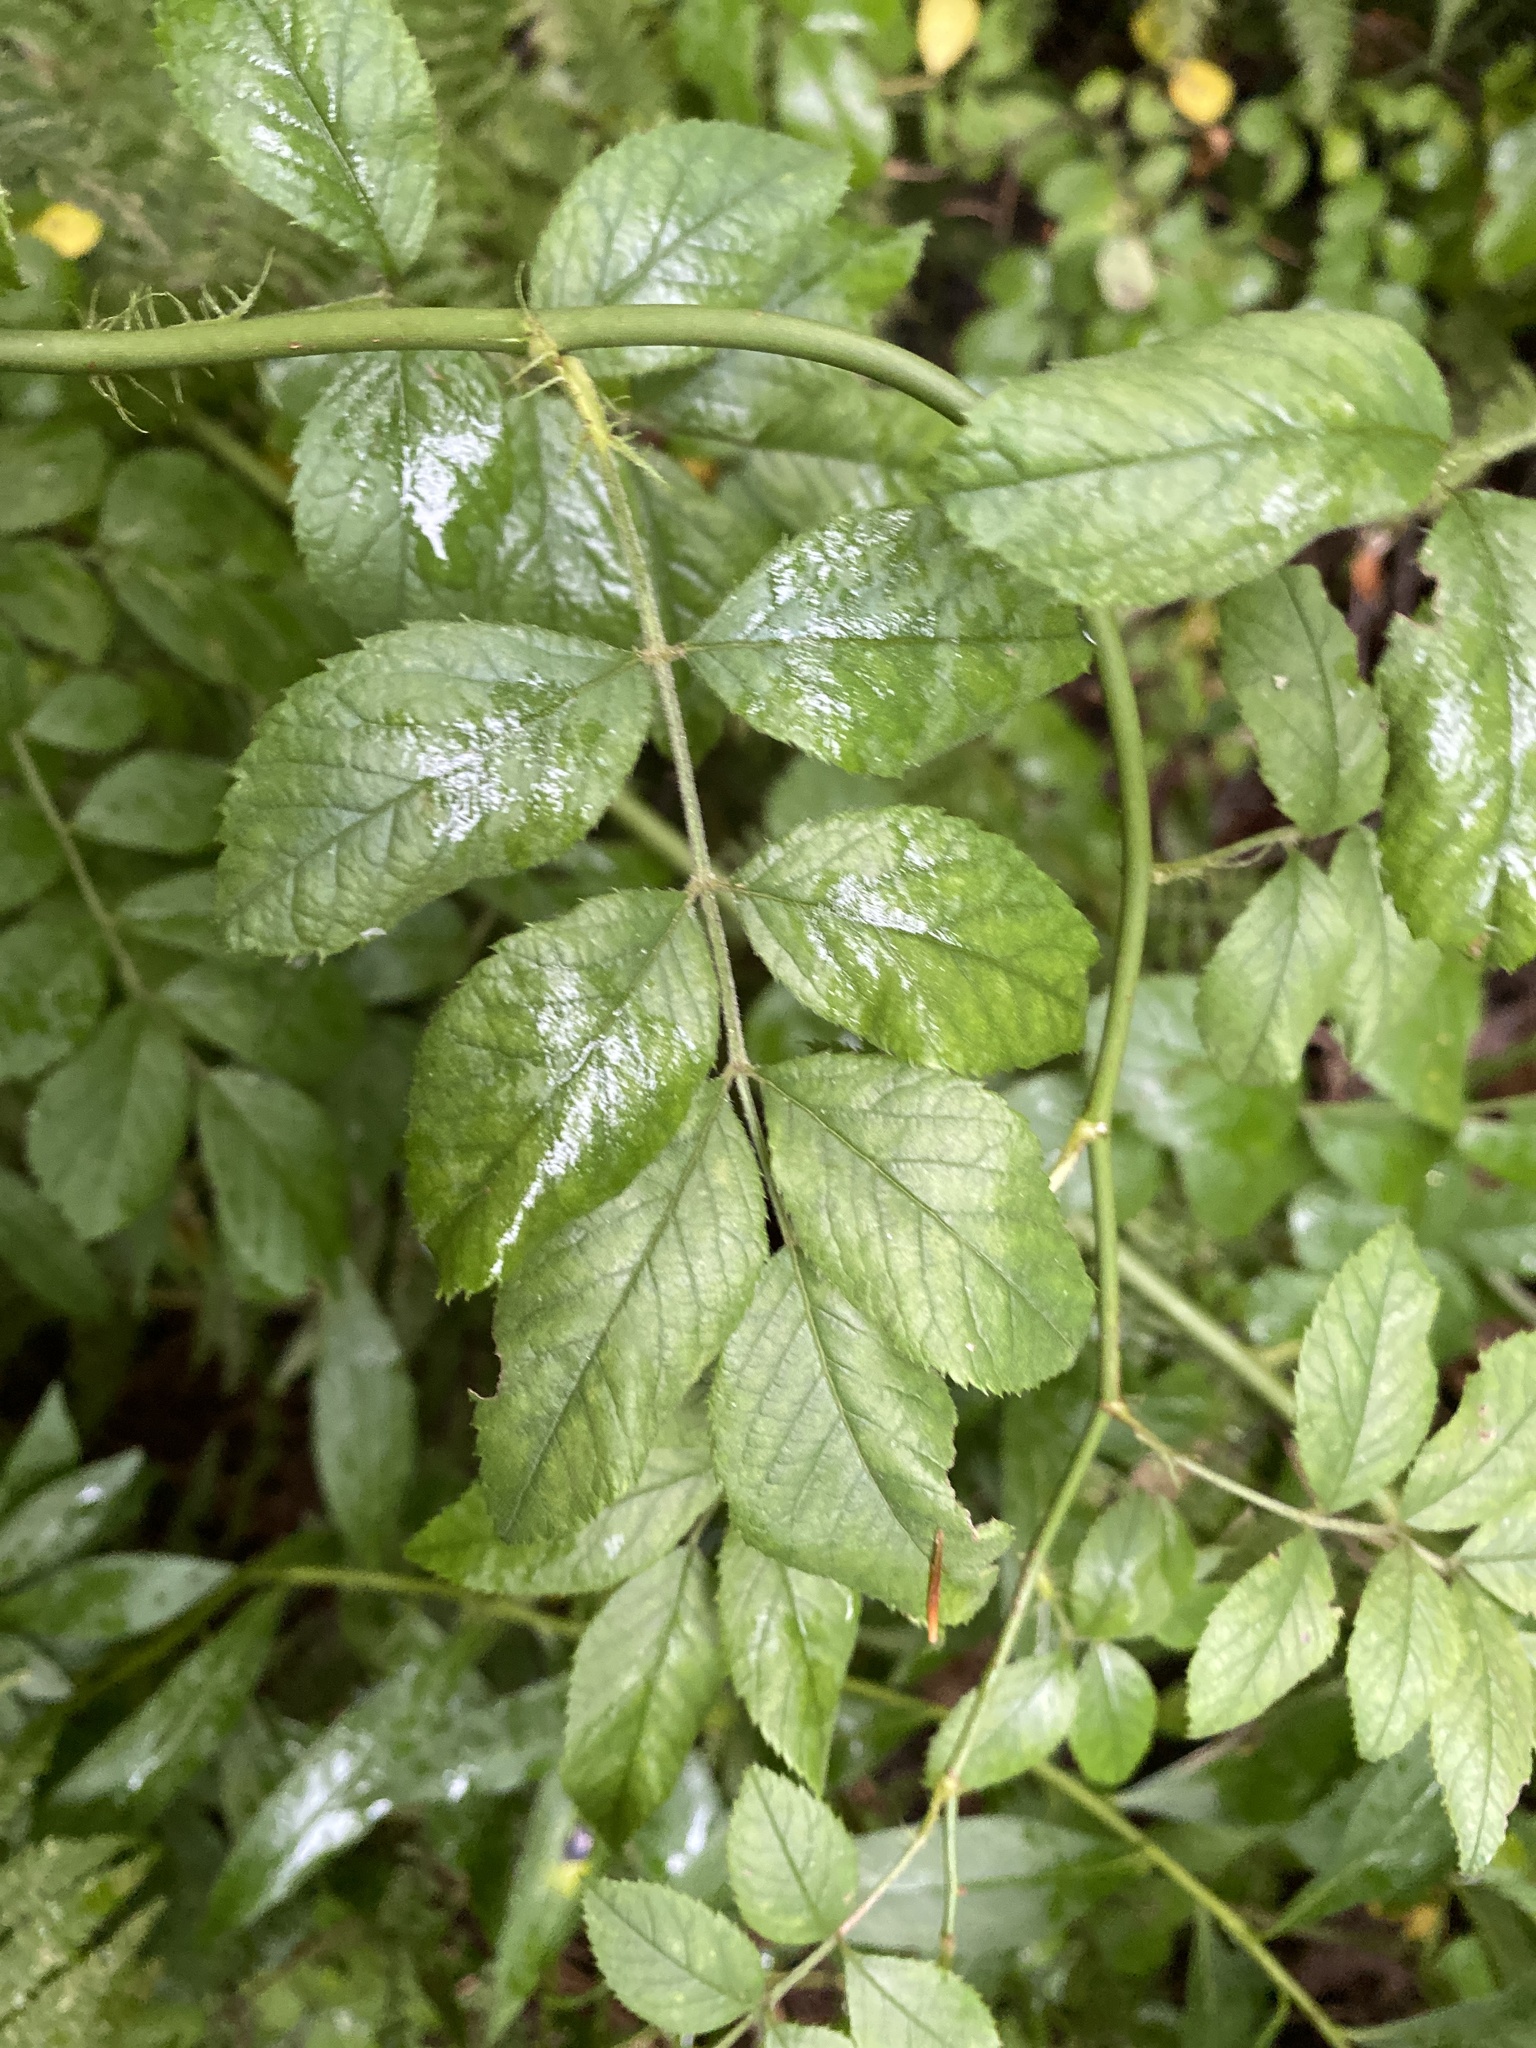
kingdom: Plantae
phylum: Tracheophyta
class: Magnoliopsida
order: Rosales
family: Rosaceae
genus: Rosa
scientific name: Rosa multiflora
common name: Multiflora rose
